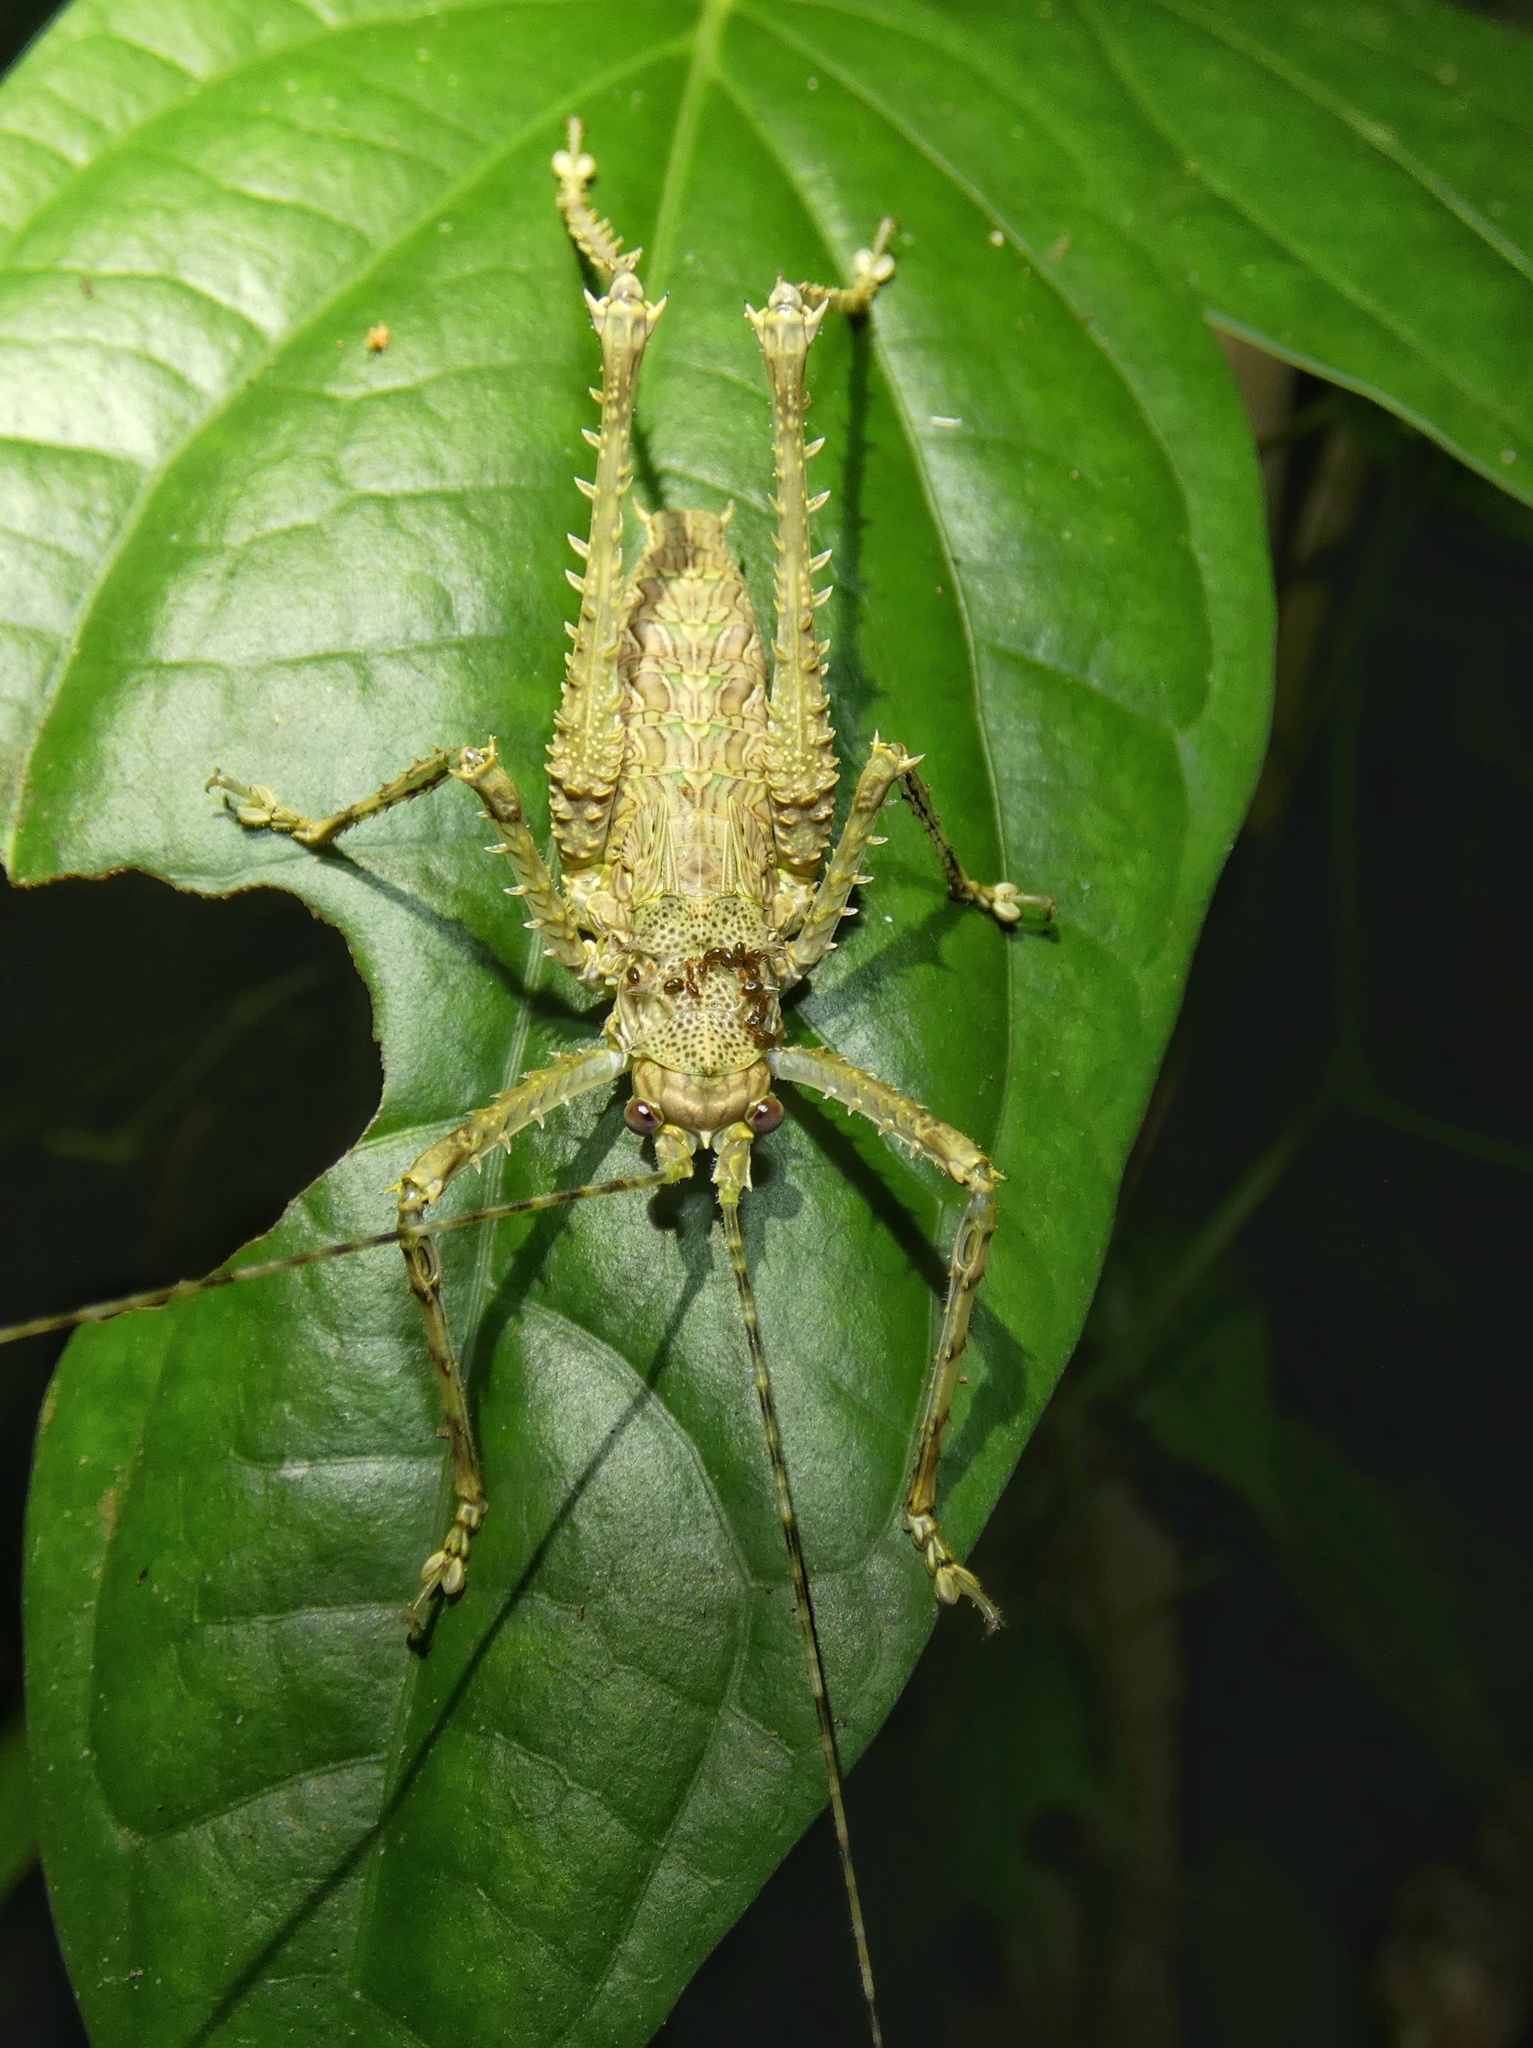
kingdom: Animalia
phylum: Arthropoda
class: Insecta
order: Orthoptera
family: Tettigoniidae
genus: Phricta
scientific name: Phricta spinosa
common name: Giant spiny forest katydid
